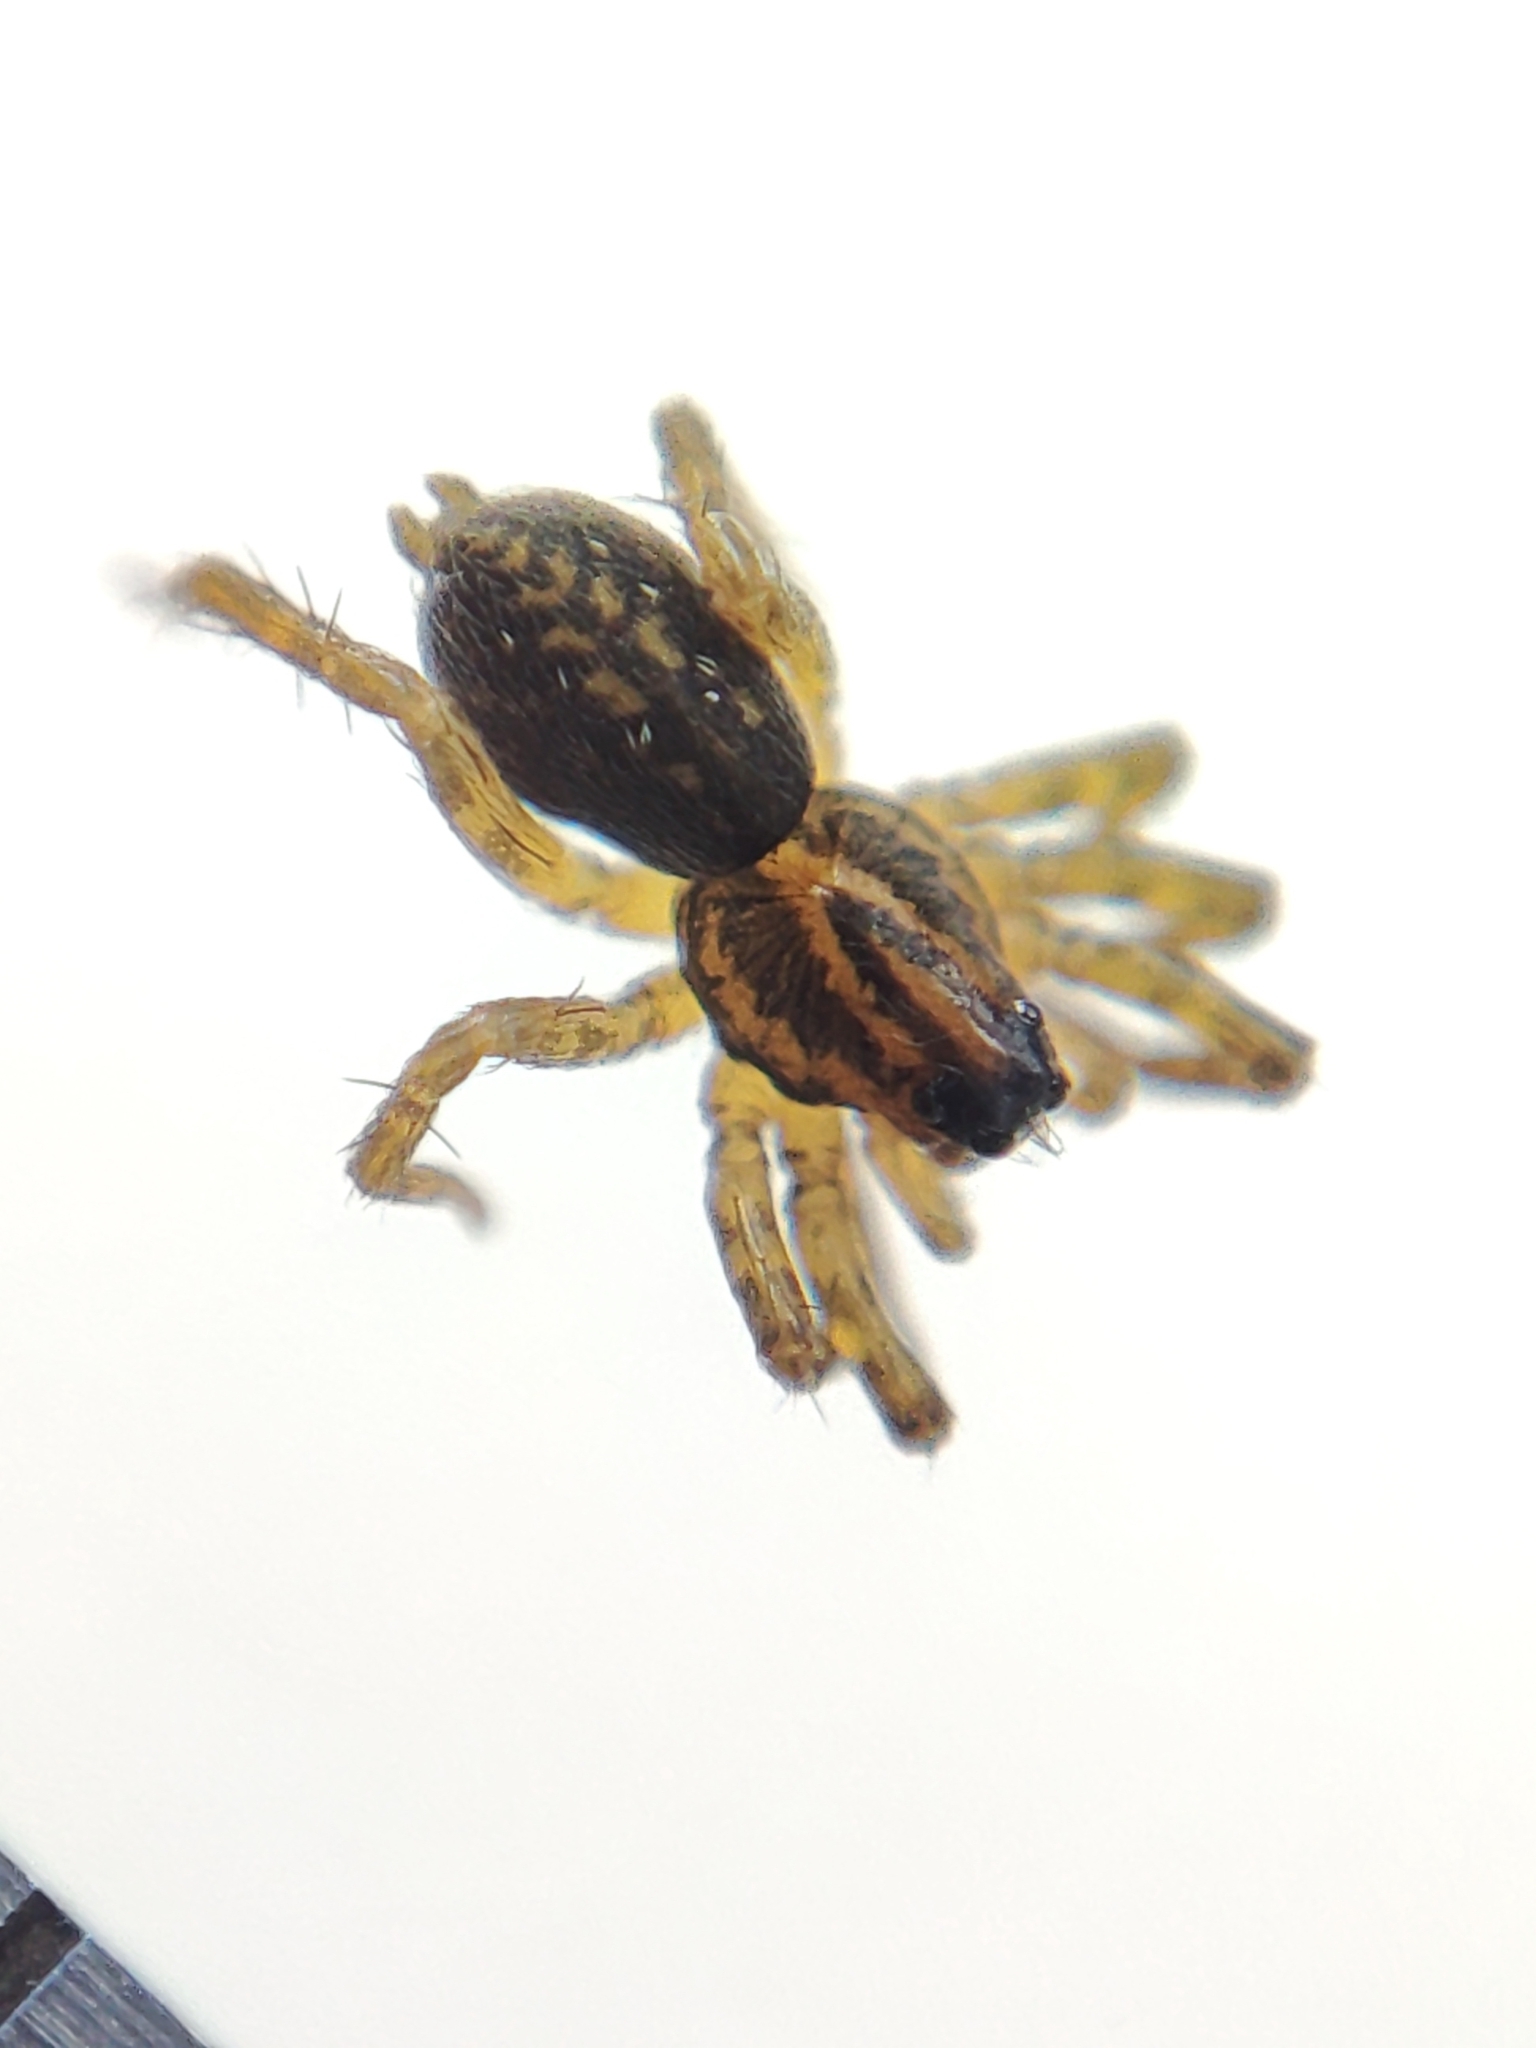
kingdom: Animalia
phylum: Arthropoda
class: Arachnida
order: Araneae
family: Lycosidae
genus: Piratula
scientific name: Piratula hygrophila
